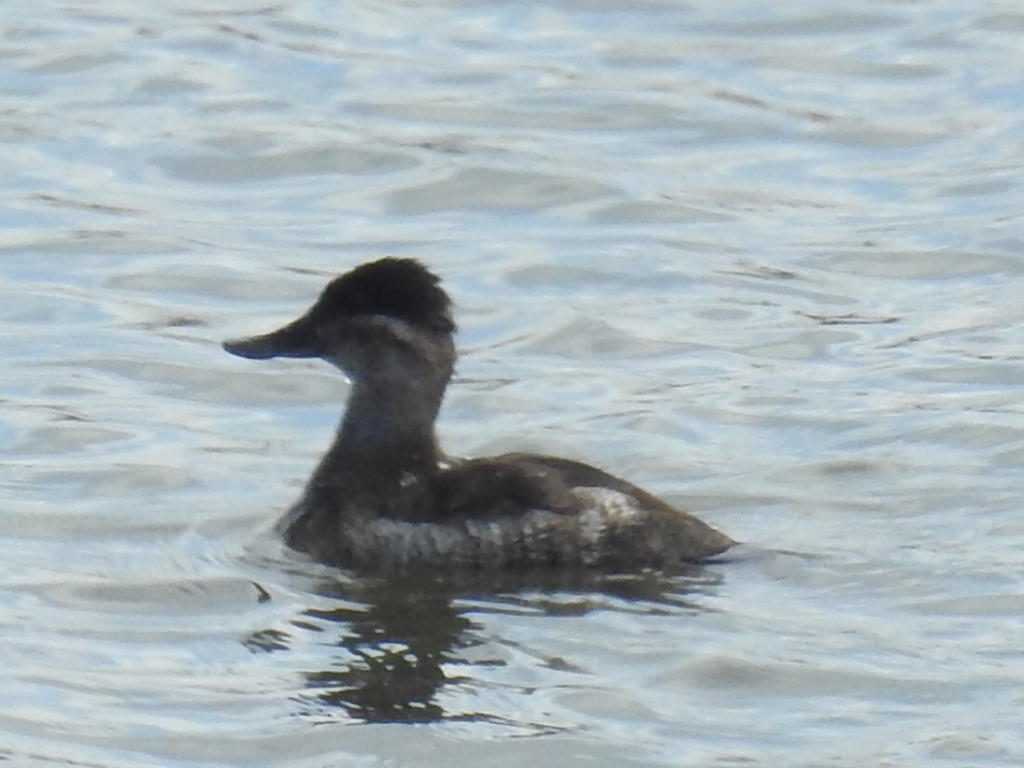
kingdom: Animalia
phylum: Chordata
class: Aves
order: Anseriformes
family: Anatidae
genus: Oxyura
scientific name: Oxyura jamaicensis
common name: Ruddy duck
